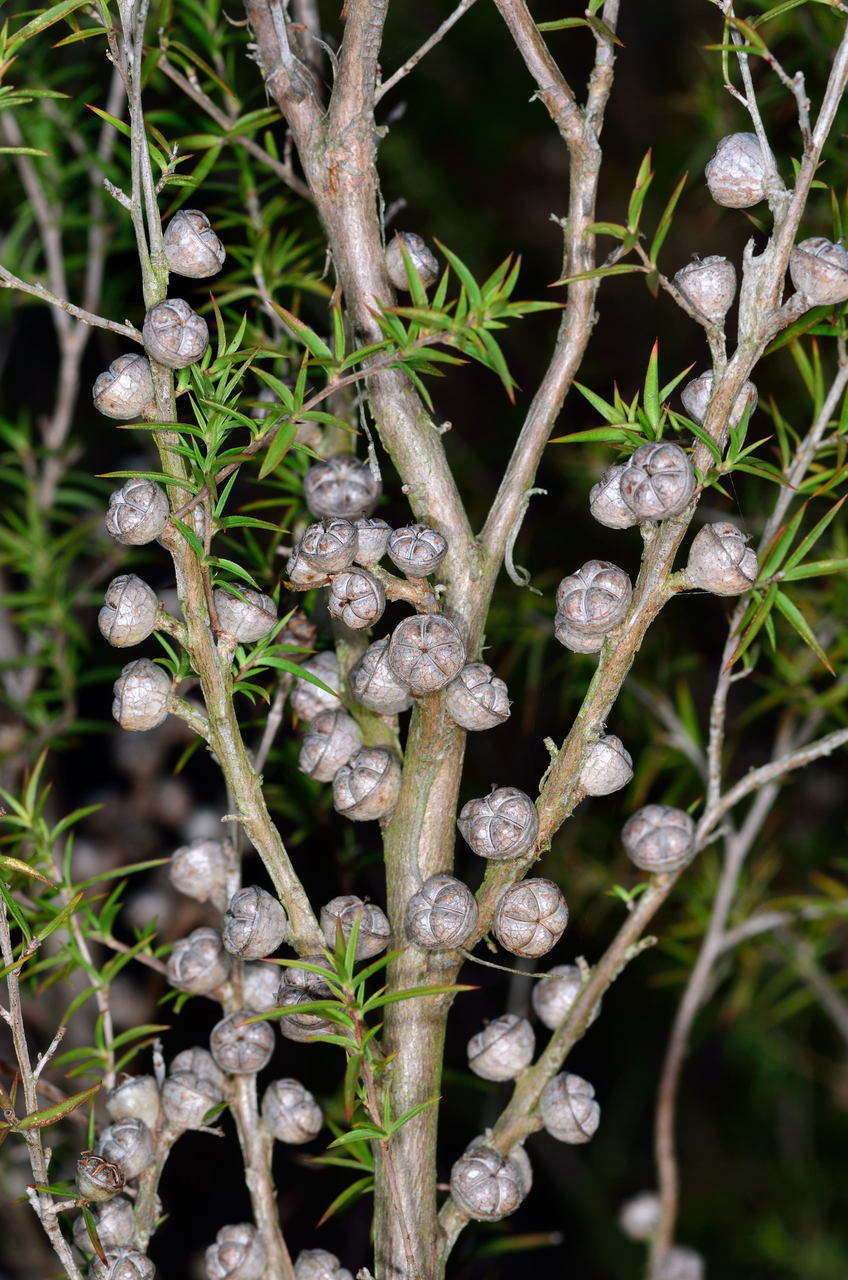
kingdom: Plantae
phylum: Tracheophyta
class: Magnoliopsida
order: Myrtales
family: Myrtaceae
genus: Leptospermum
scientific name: Leptospermum continentale
